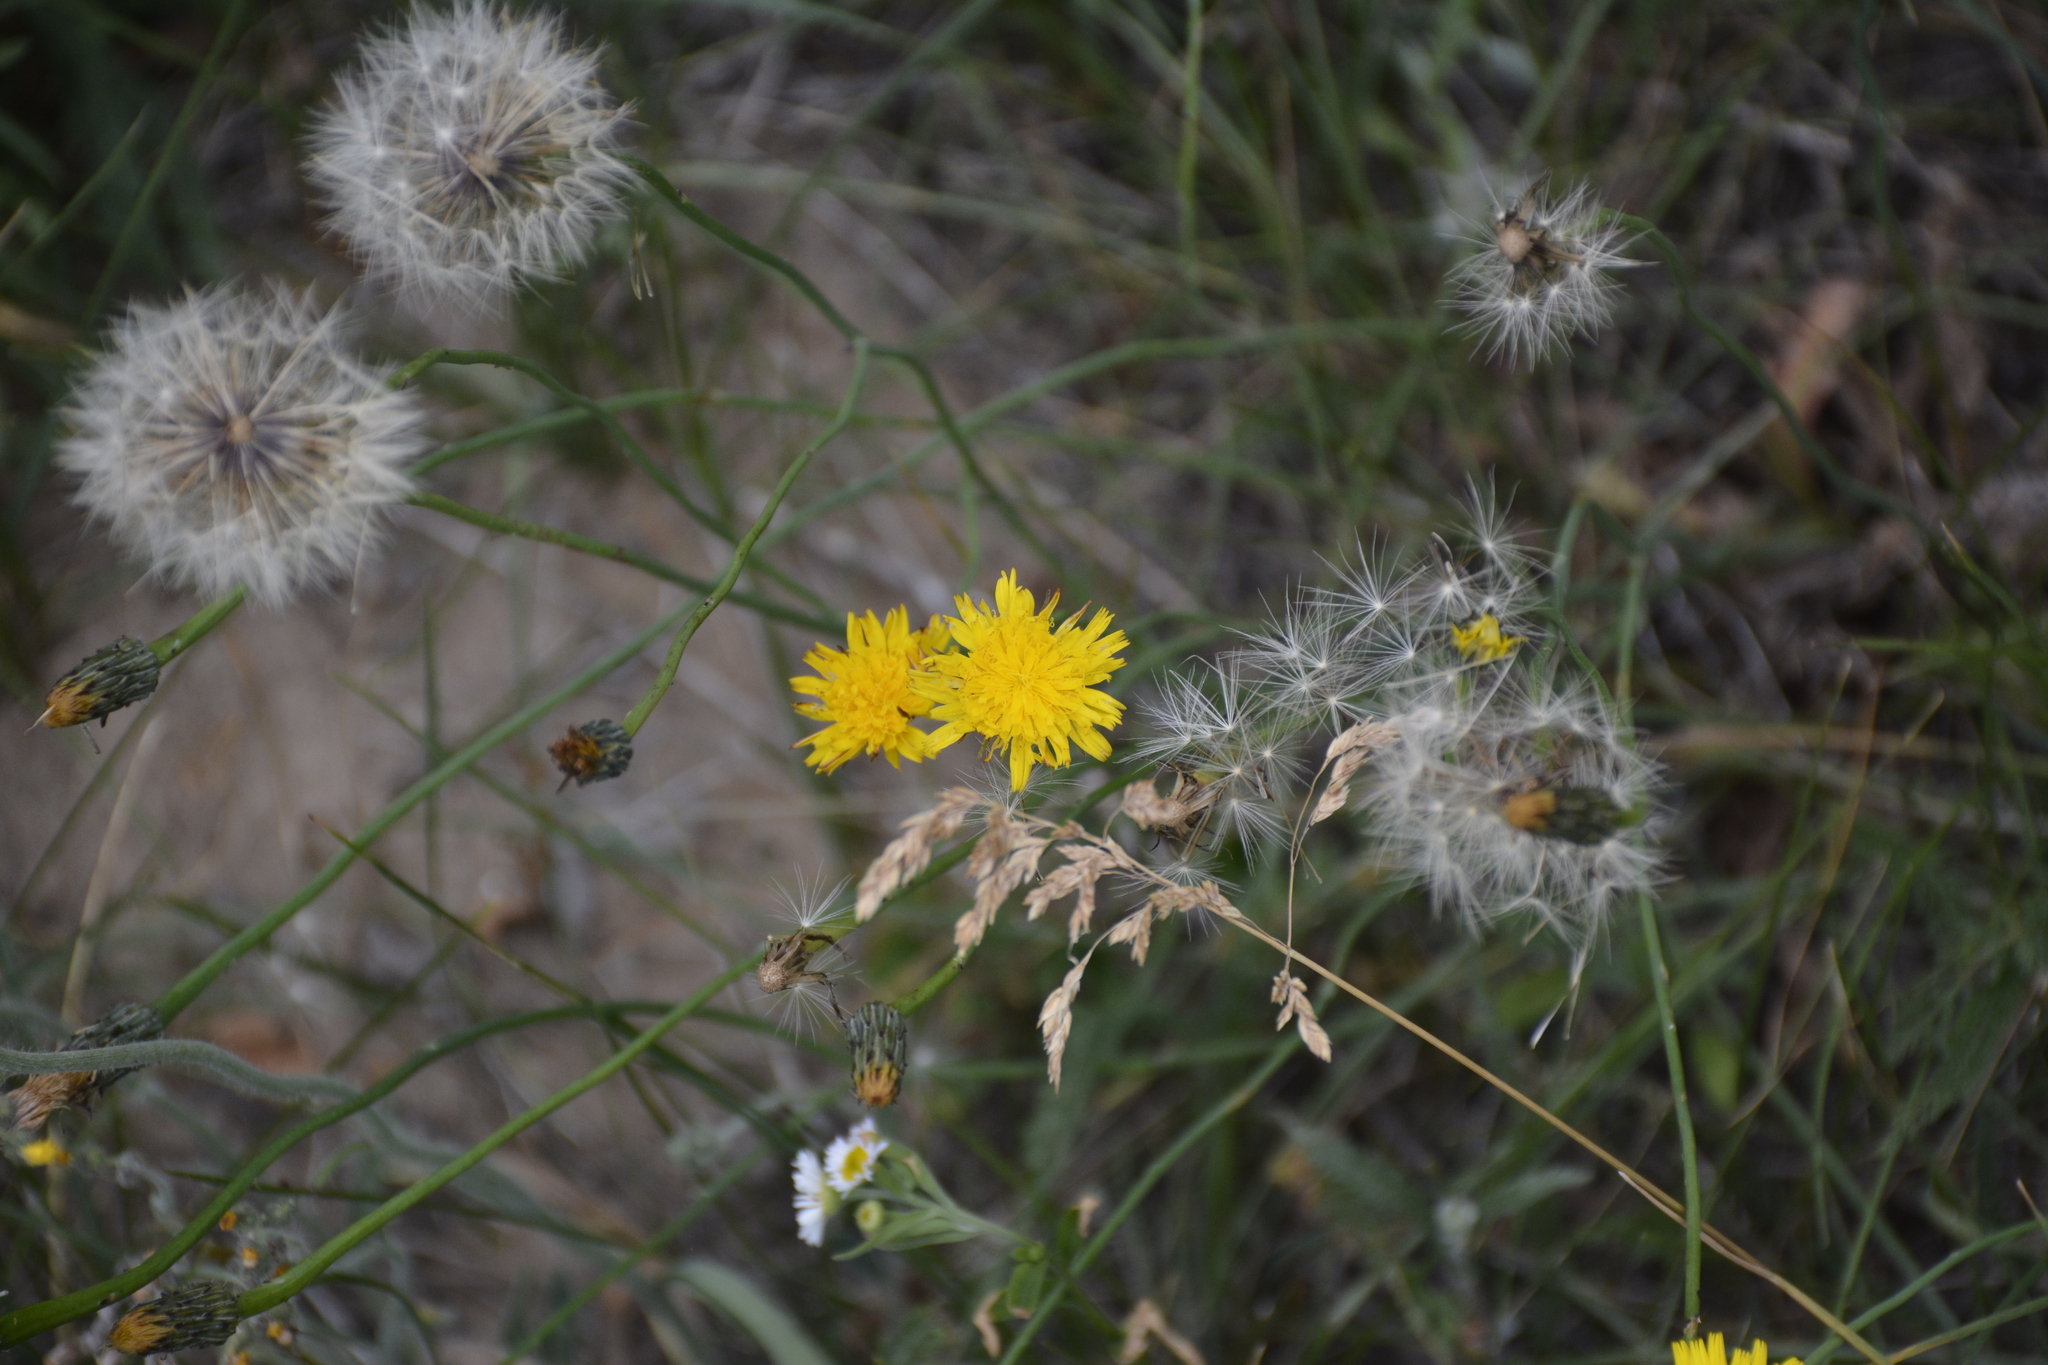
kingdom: Plantae
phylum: Tracheophyta
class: Magnoliopsida
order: Asterales
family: Asteraceae
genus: Hypochaeris
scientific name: Hypochaeris radicata
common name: Flatweed
